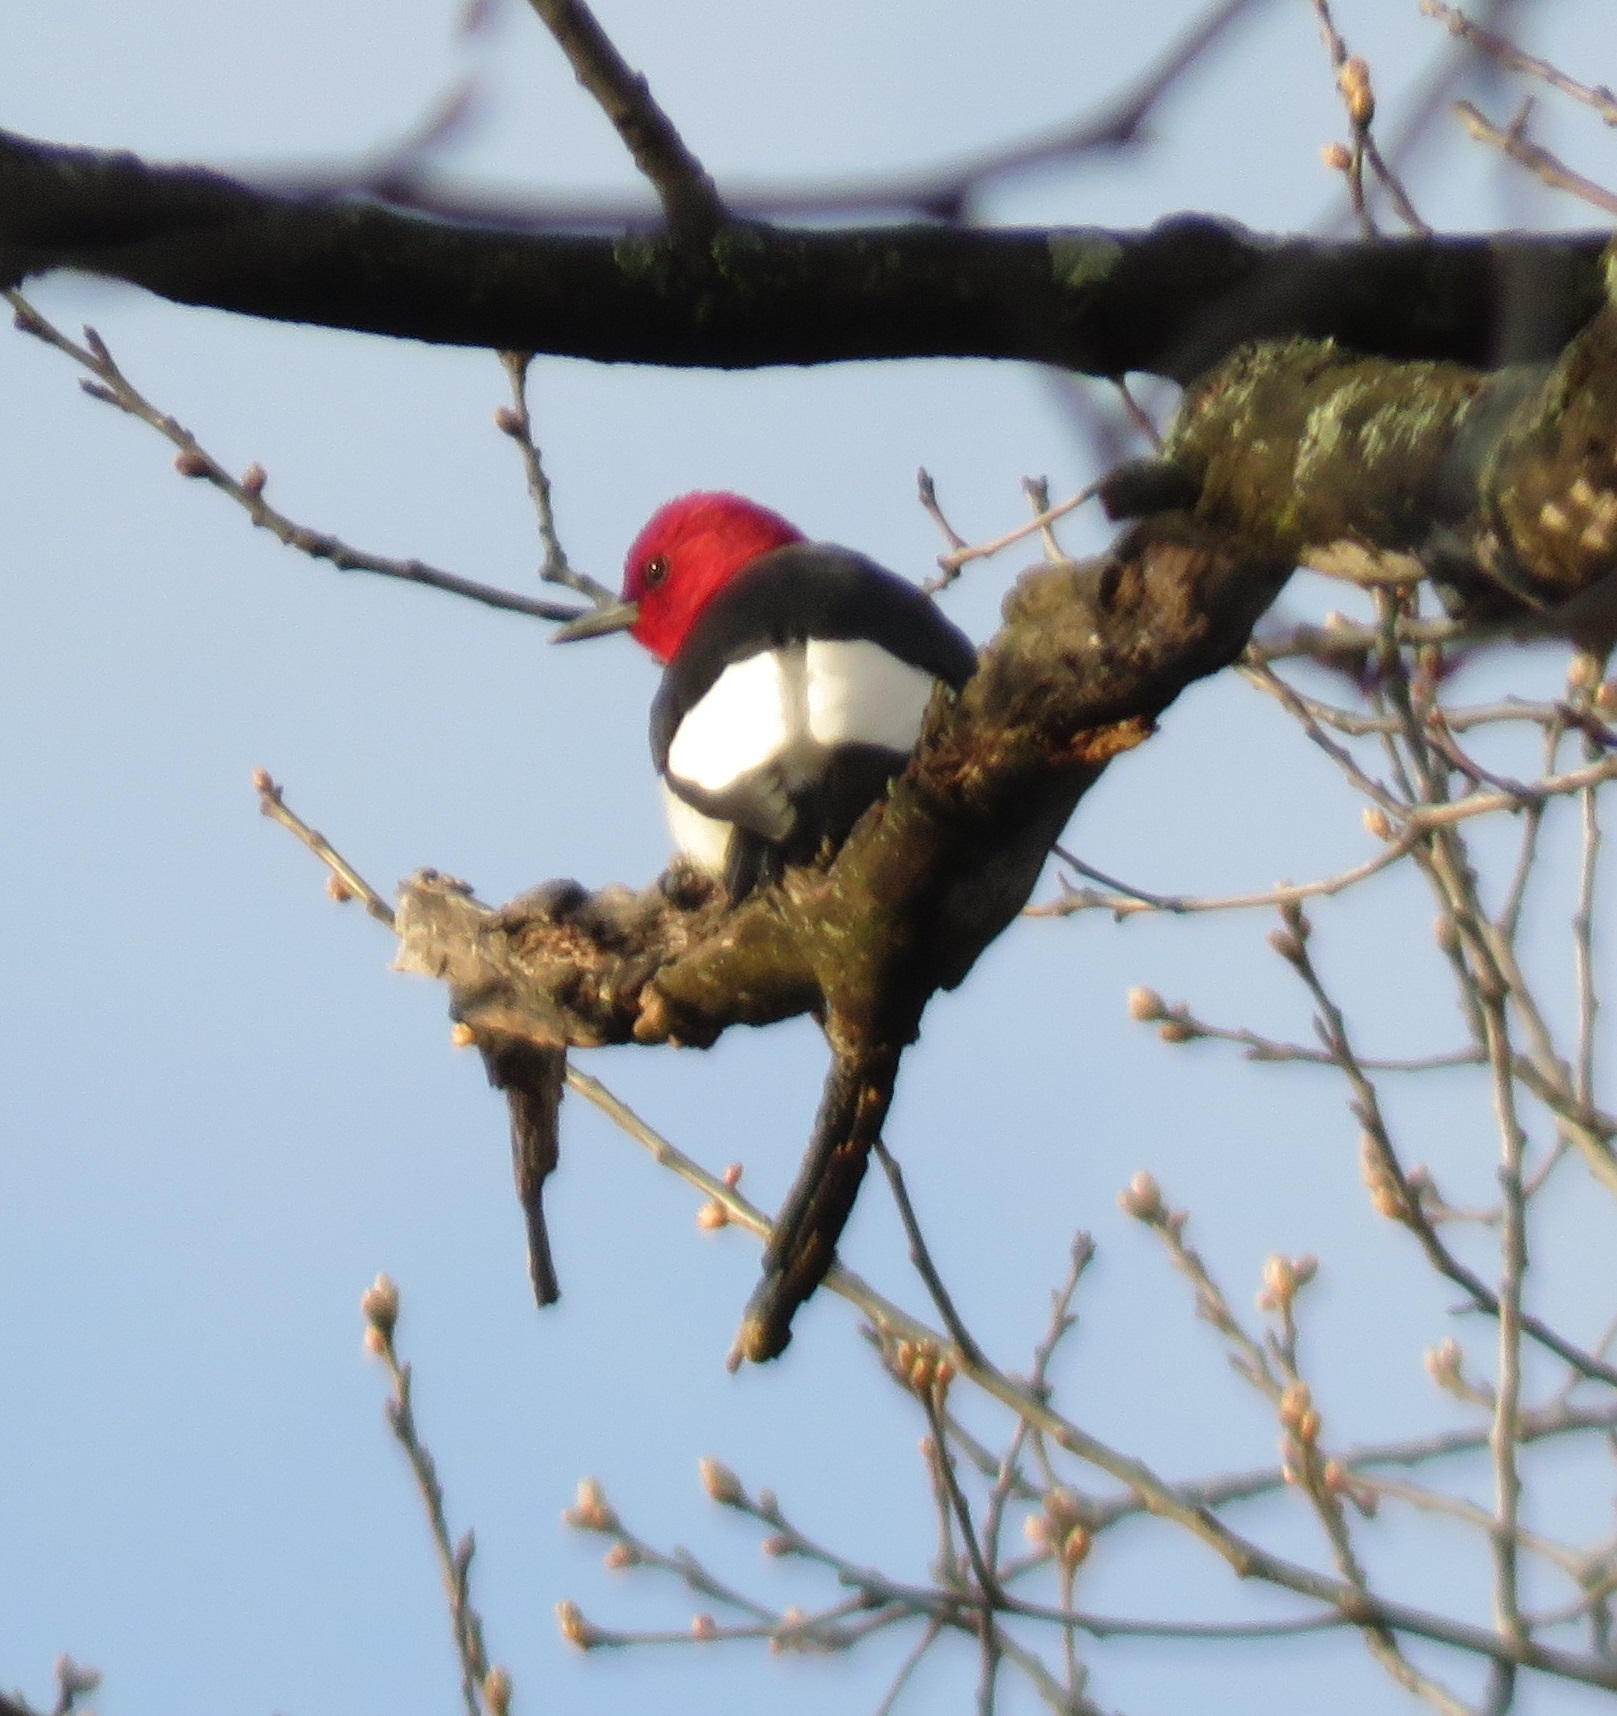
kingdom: Animalia
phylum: Chordata
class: Aves
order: Piciformes
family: Picidae
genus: Melanerpes
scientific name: Melanerpes erythrocephalus
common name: Red-headed woodpecker
